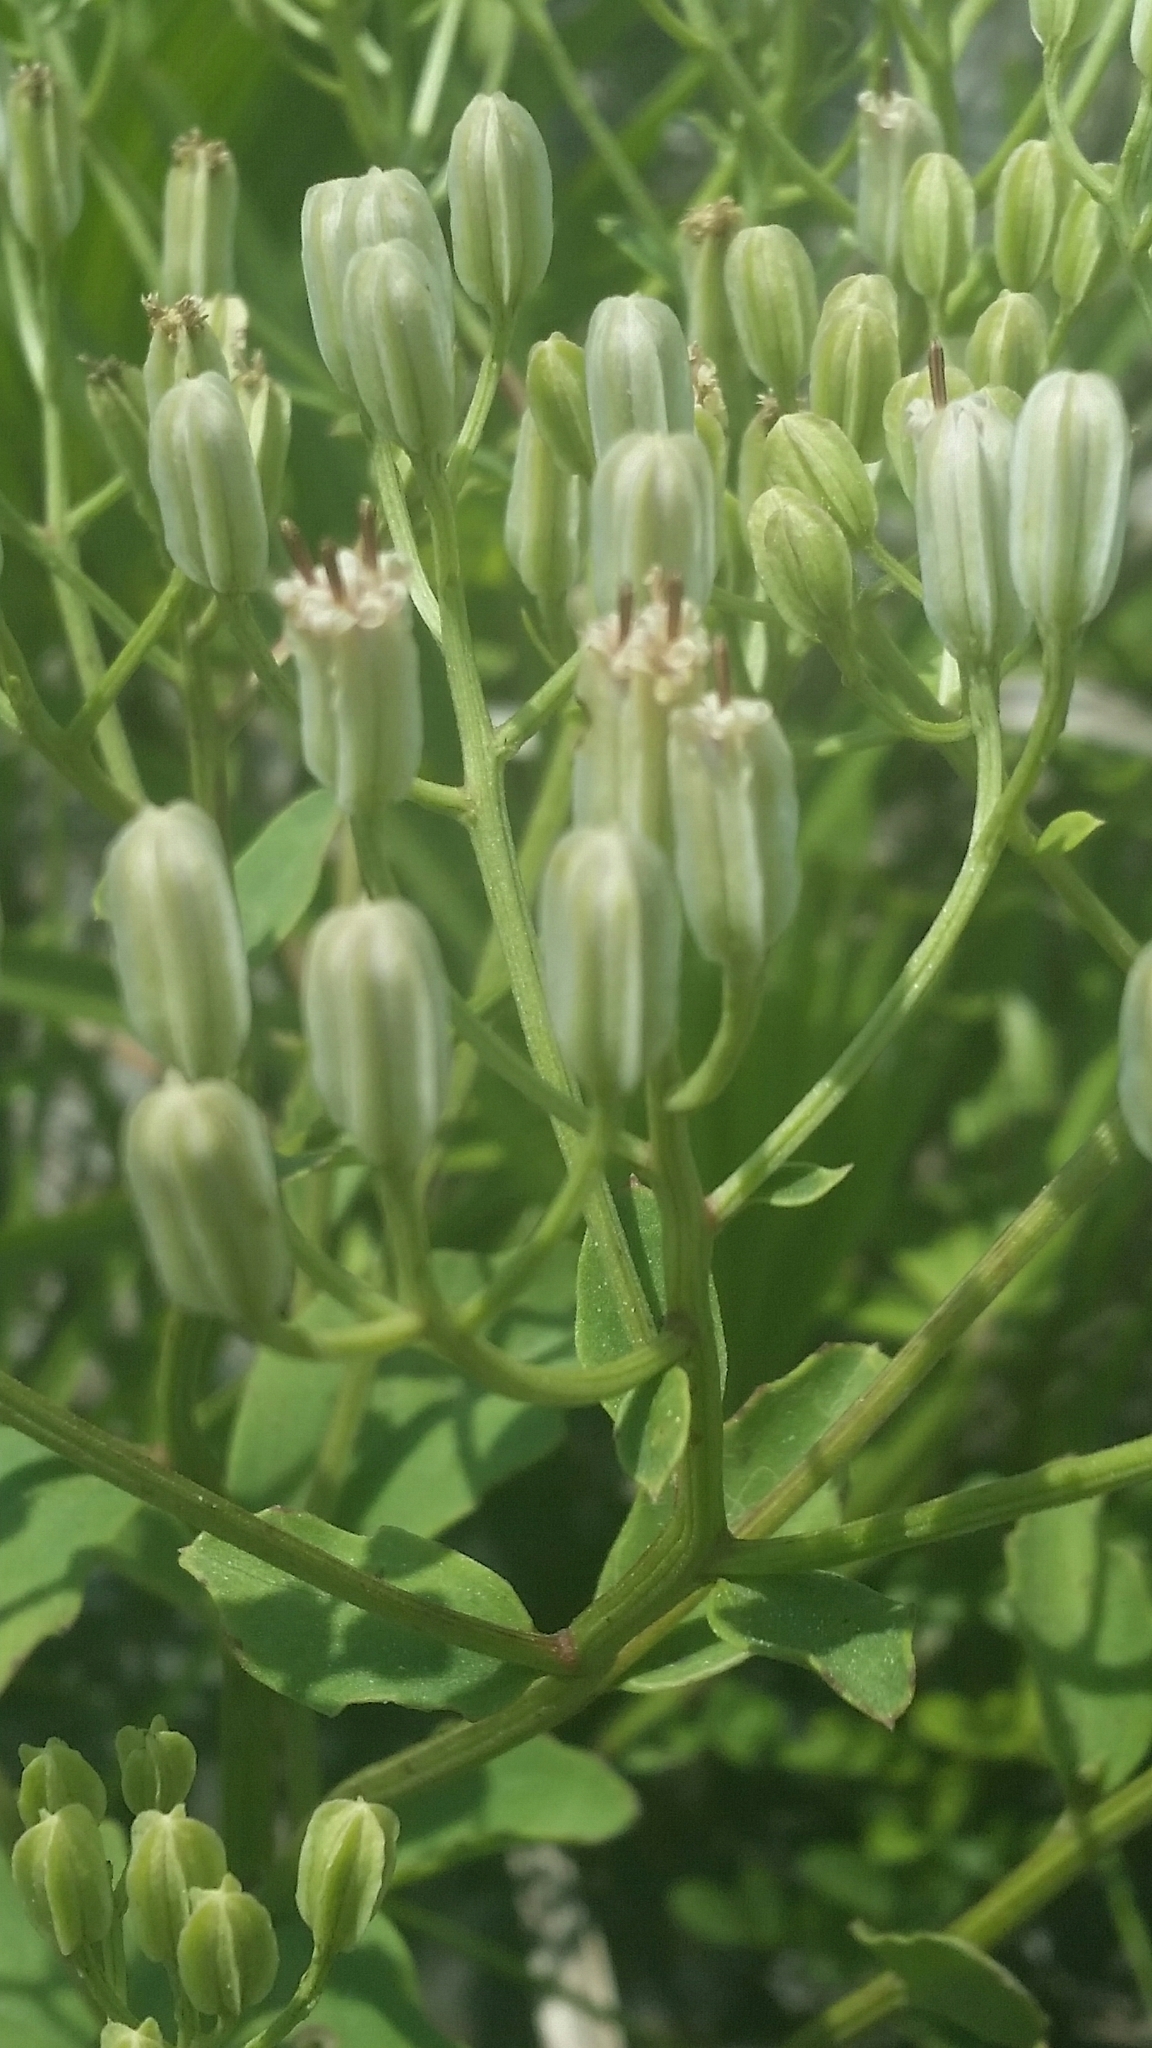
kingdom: Plantae
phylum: Tracheophyta
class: Magnoliopsida
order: Asterales
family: Asteraceae
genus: Arnoglossum
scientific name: Arnoglossum floridanum
